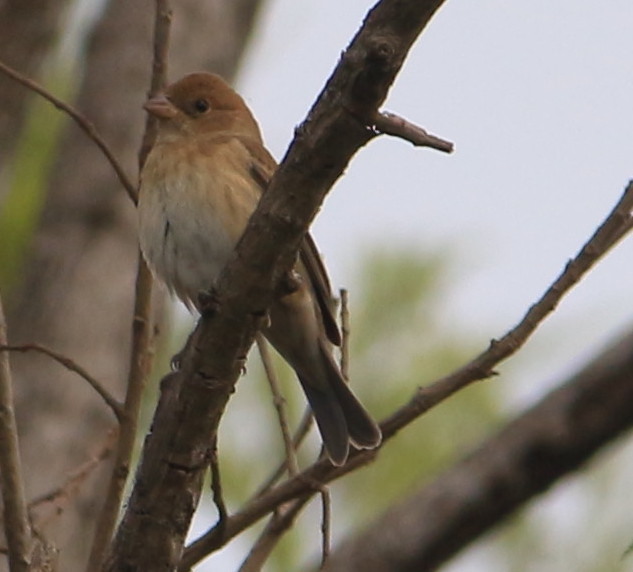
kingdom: Animalia
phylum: Chordata
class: Aves
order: Passeriformes
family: Cardinalidae
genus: Passerina
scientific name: Passerina cyanea
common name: Indigo bunting
